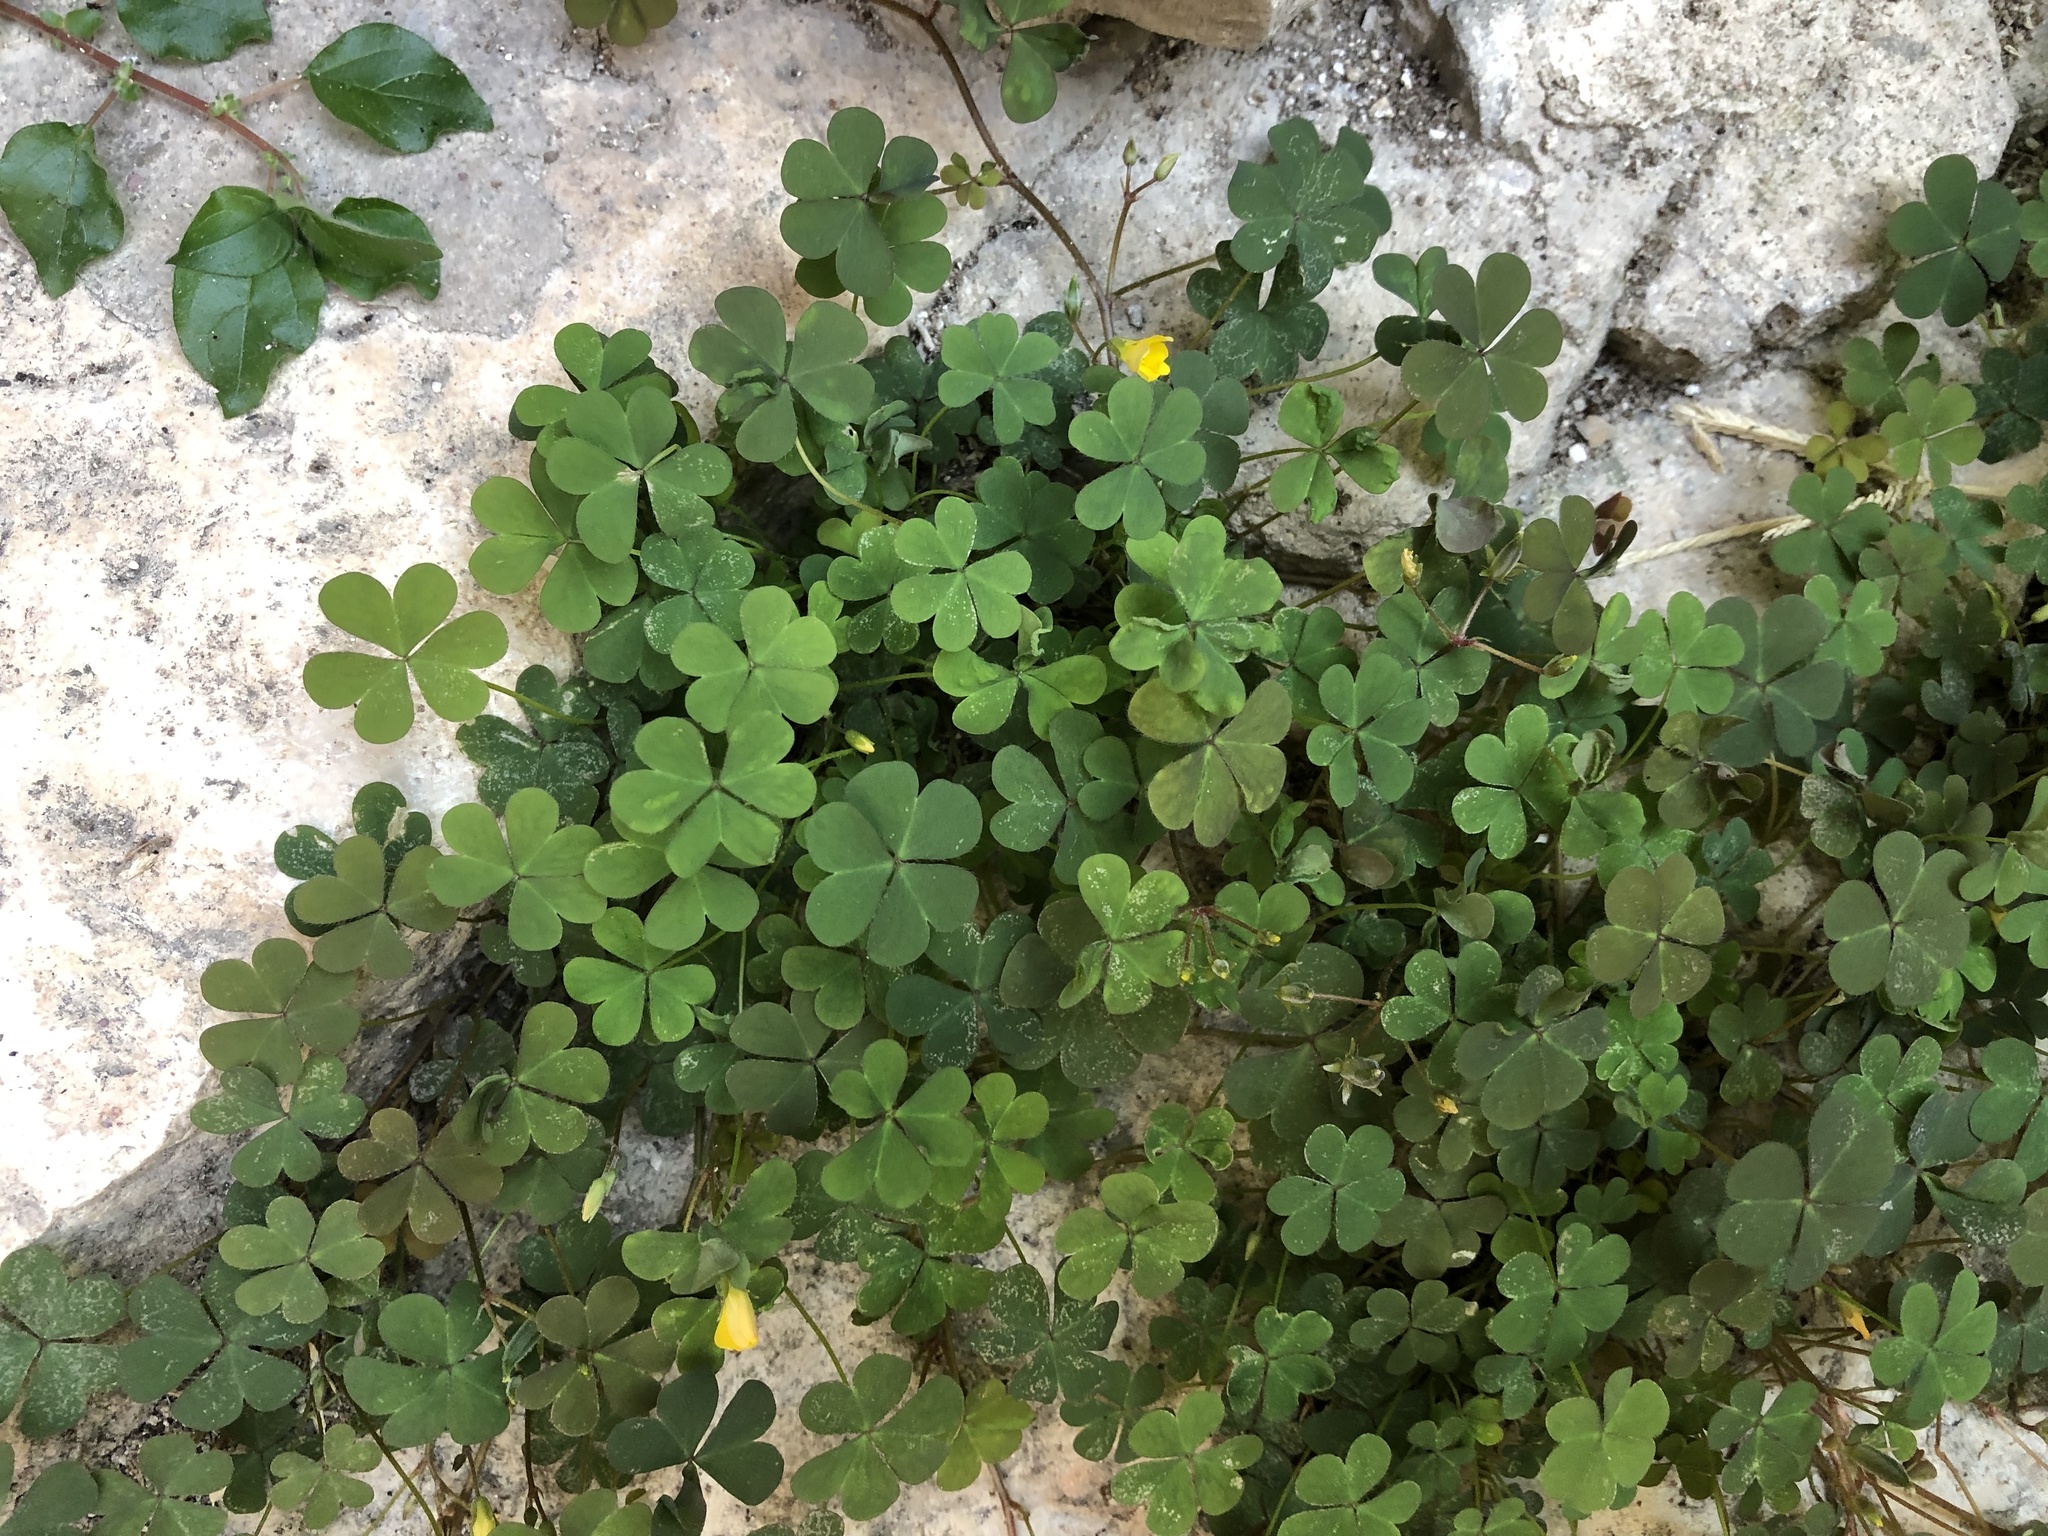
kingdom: Plantae
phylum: Tracheophyta
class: Magnoliopsida
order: Oxalidales
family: Oxalidaceae
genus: Oxalis
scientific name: Oxalis corniculata
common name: Procumbent yellow-sorrel
